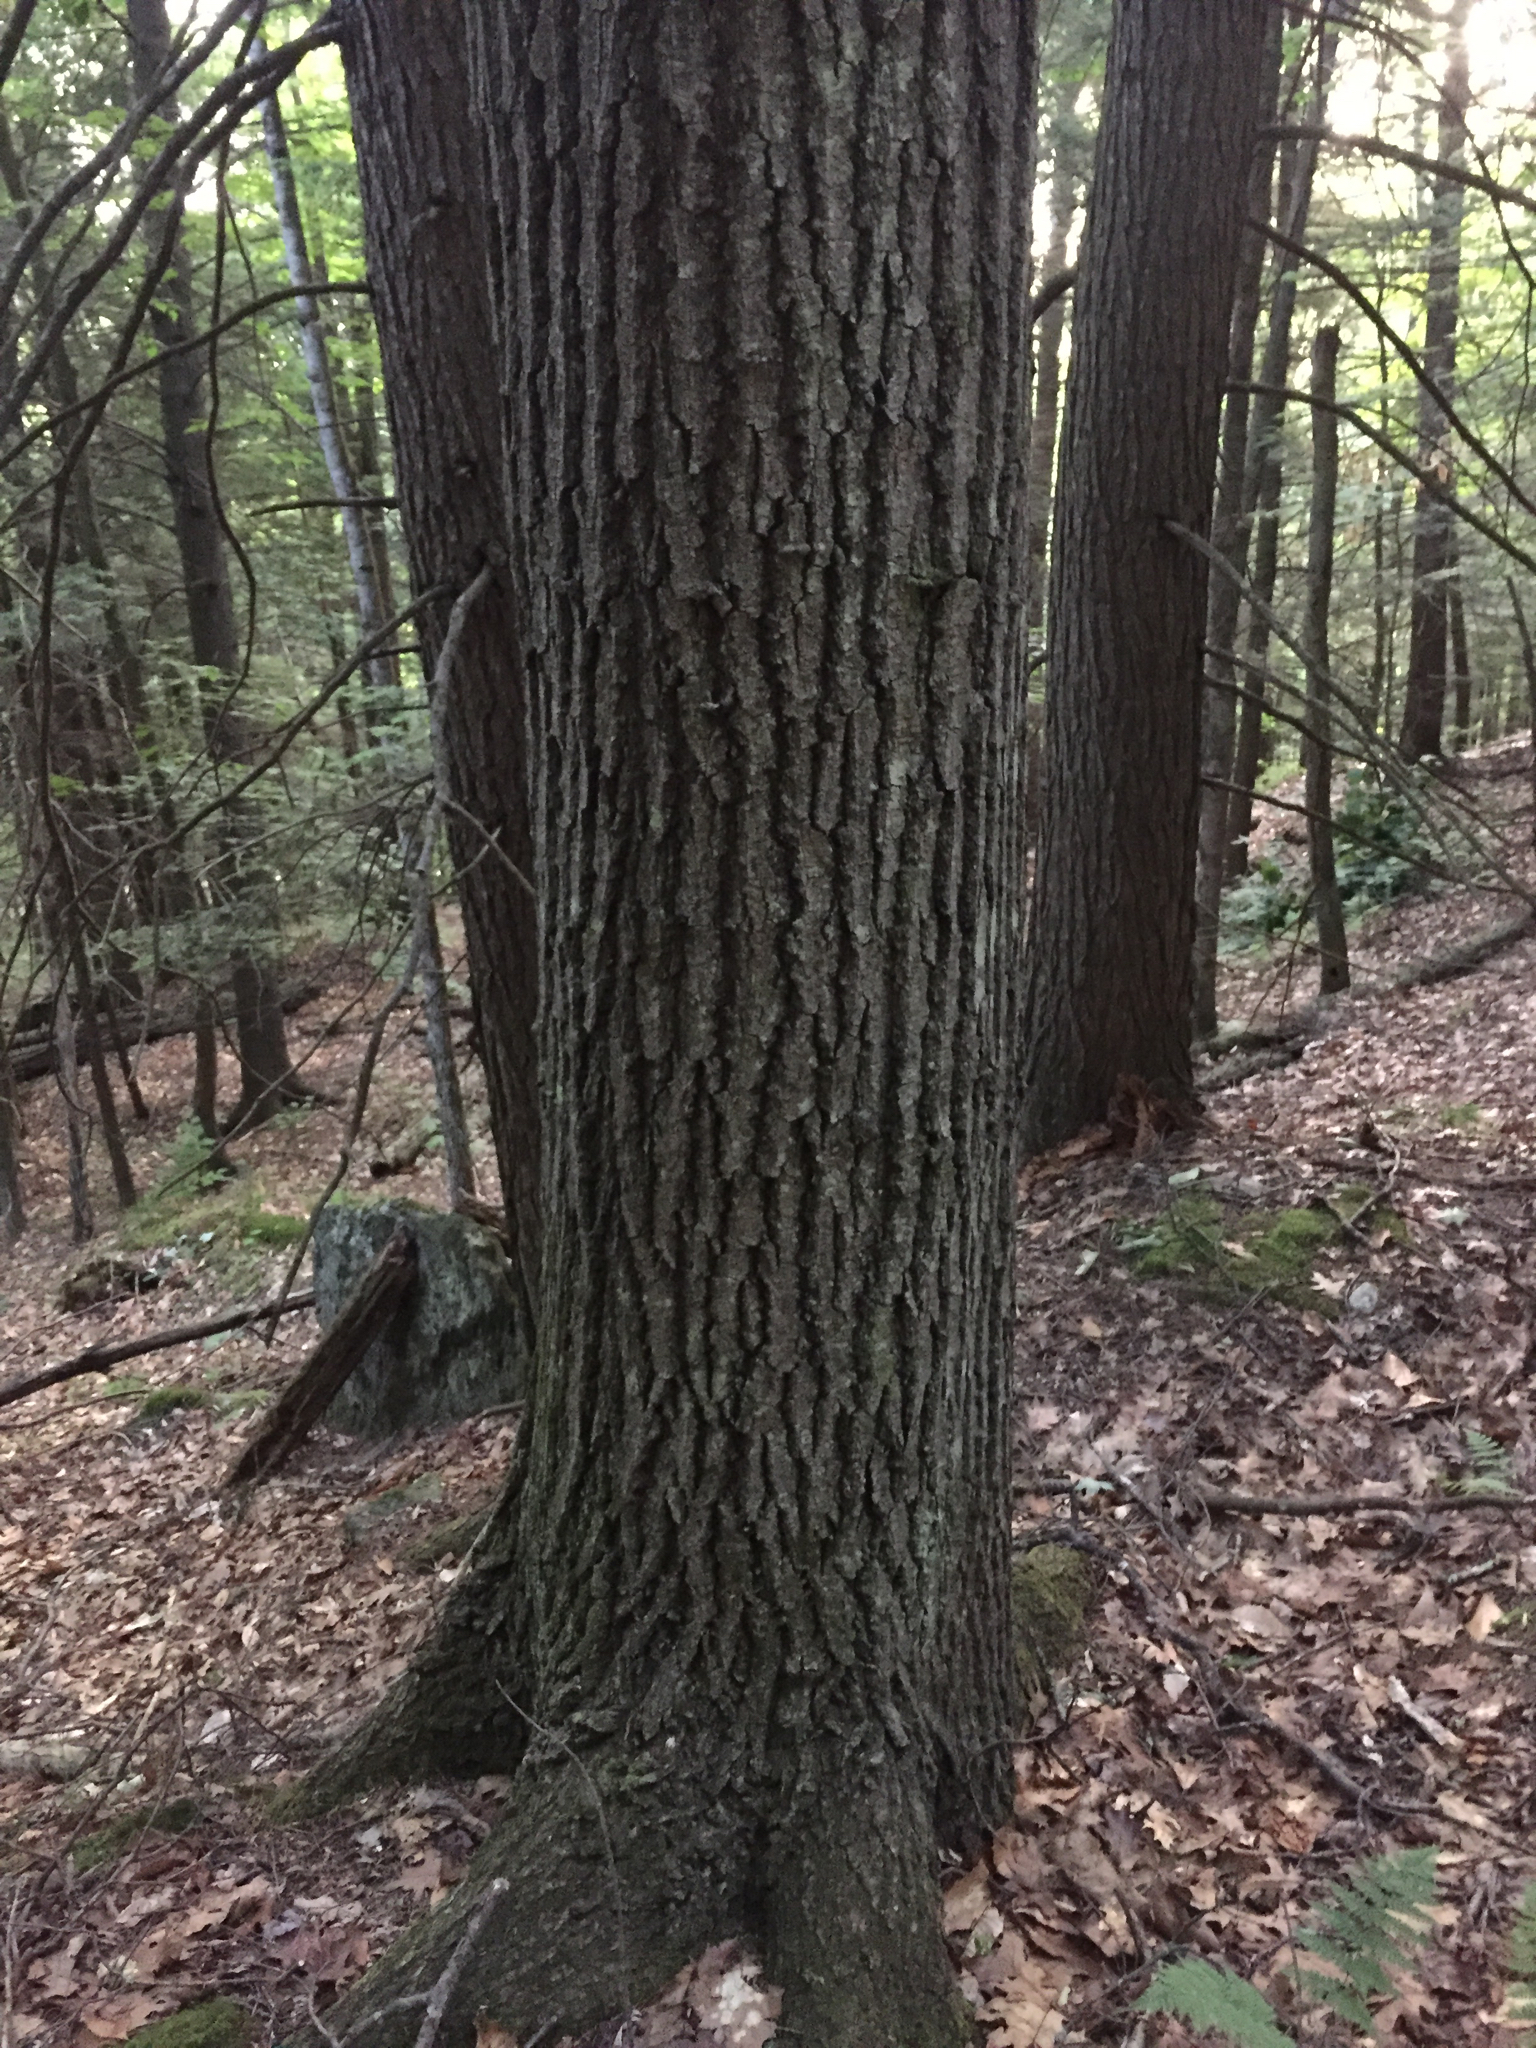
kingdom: Plantae
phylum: Tracheophyta
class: Magnoliopsida
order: Fagales
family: Fagaceae
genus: Quercus
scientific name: Quercus rubra
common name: Red oak
